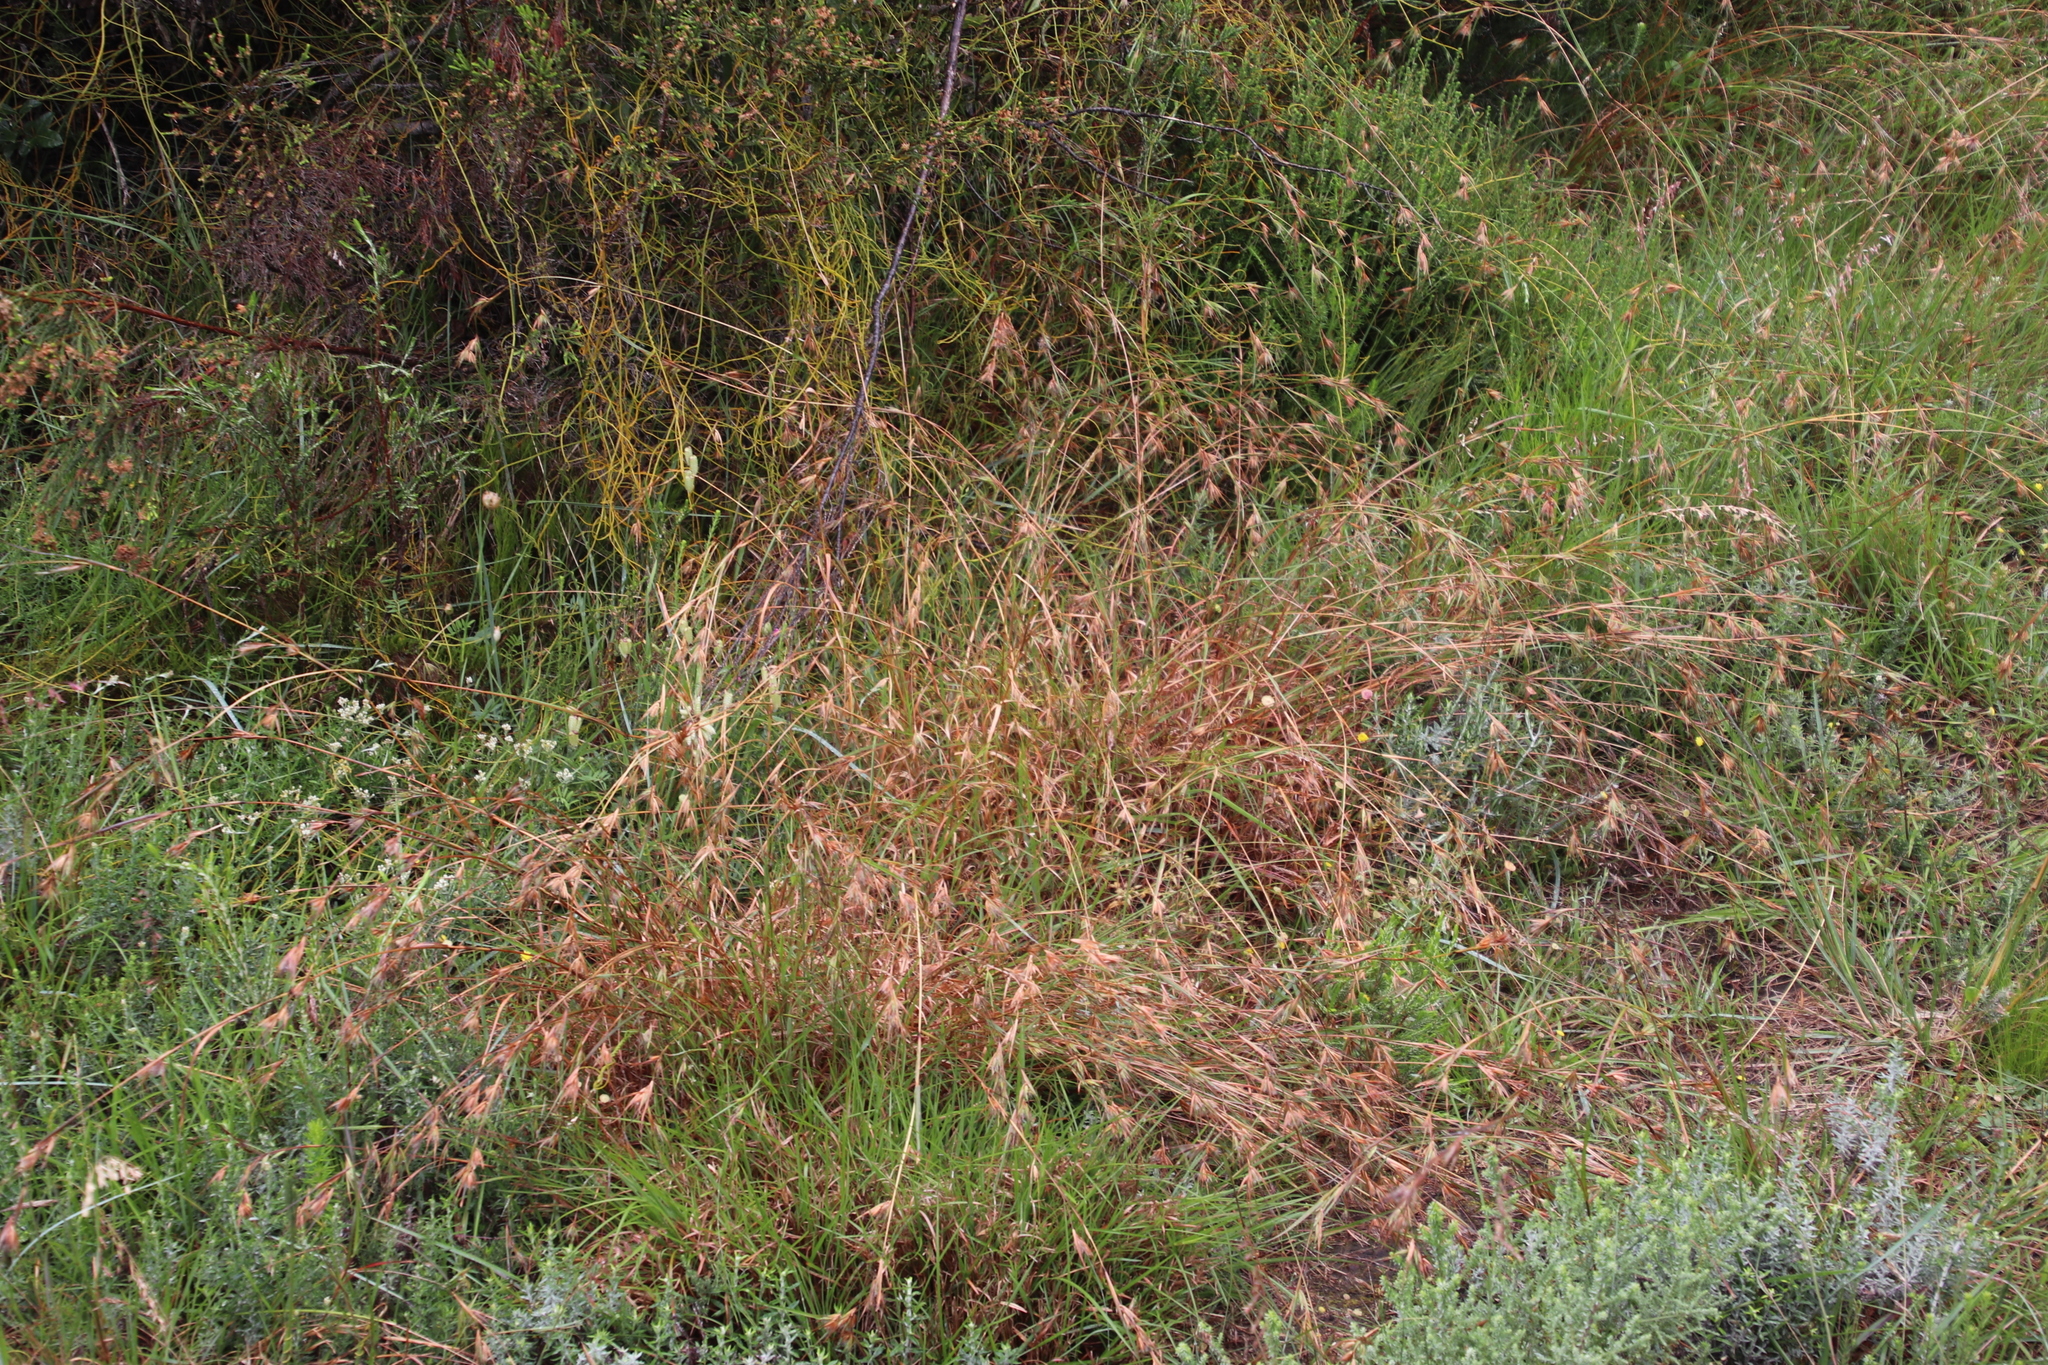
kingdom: Plantae
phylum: Tracheophyta
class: Liliopsida
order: Poales
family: Poaceae
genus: Themeda
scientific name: Themeda triandra
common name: Kangaroo grass
